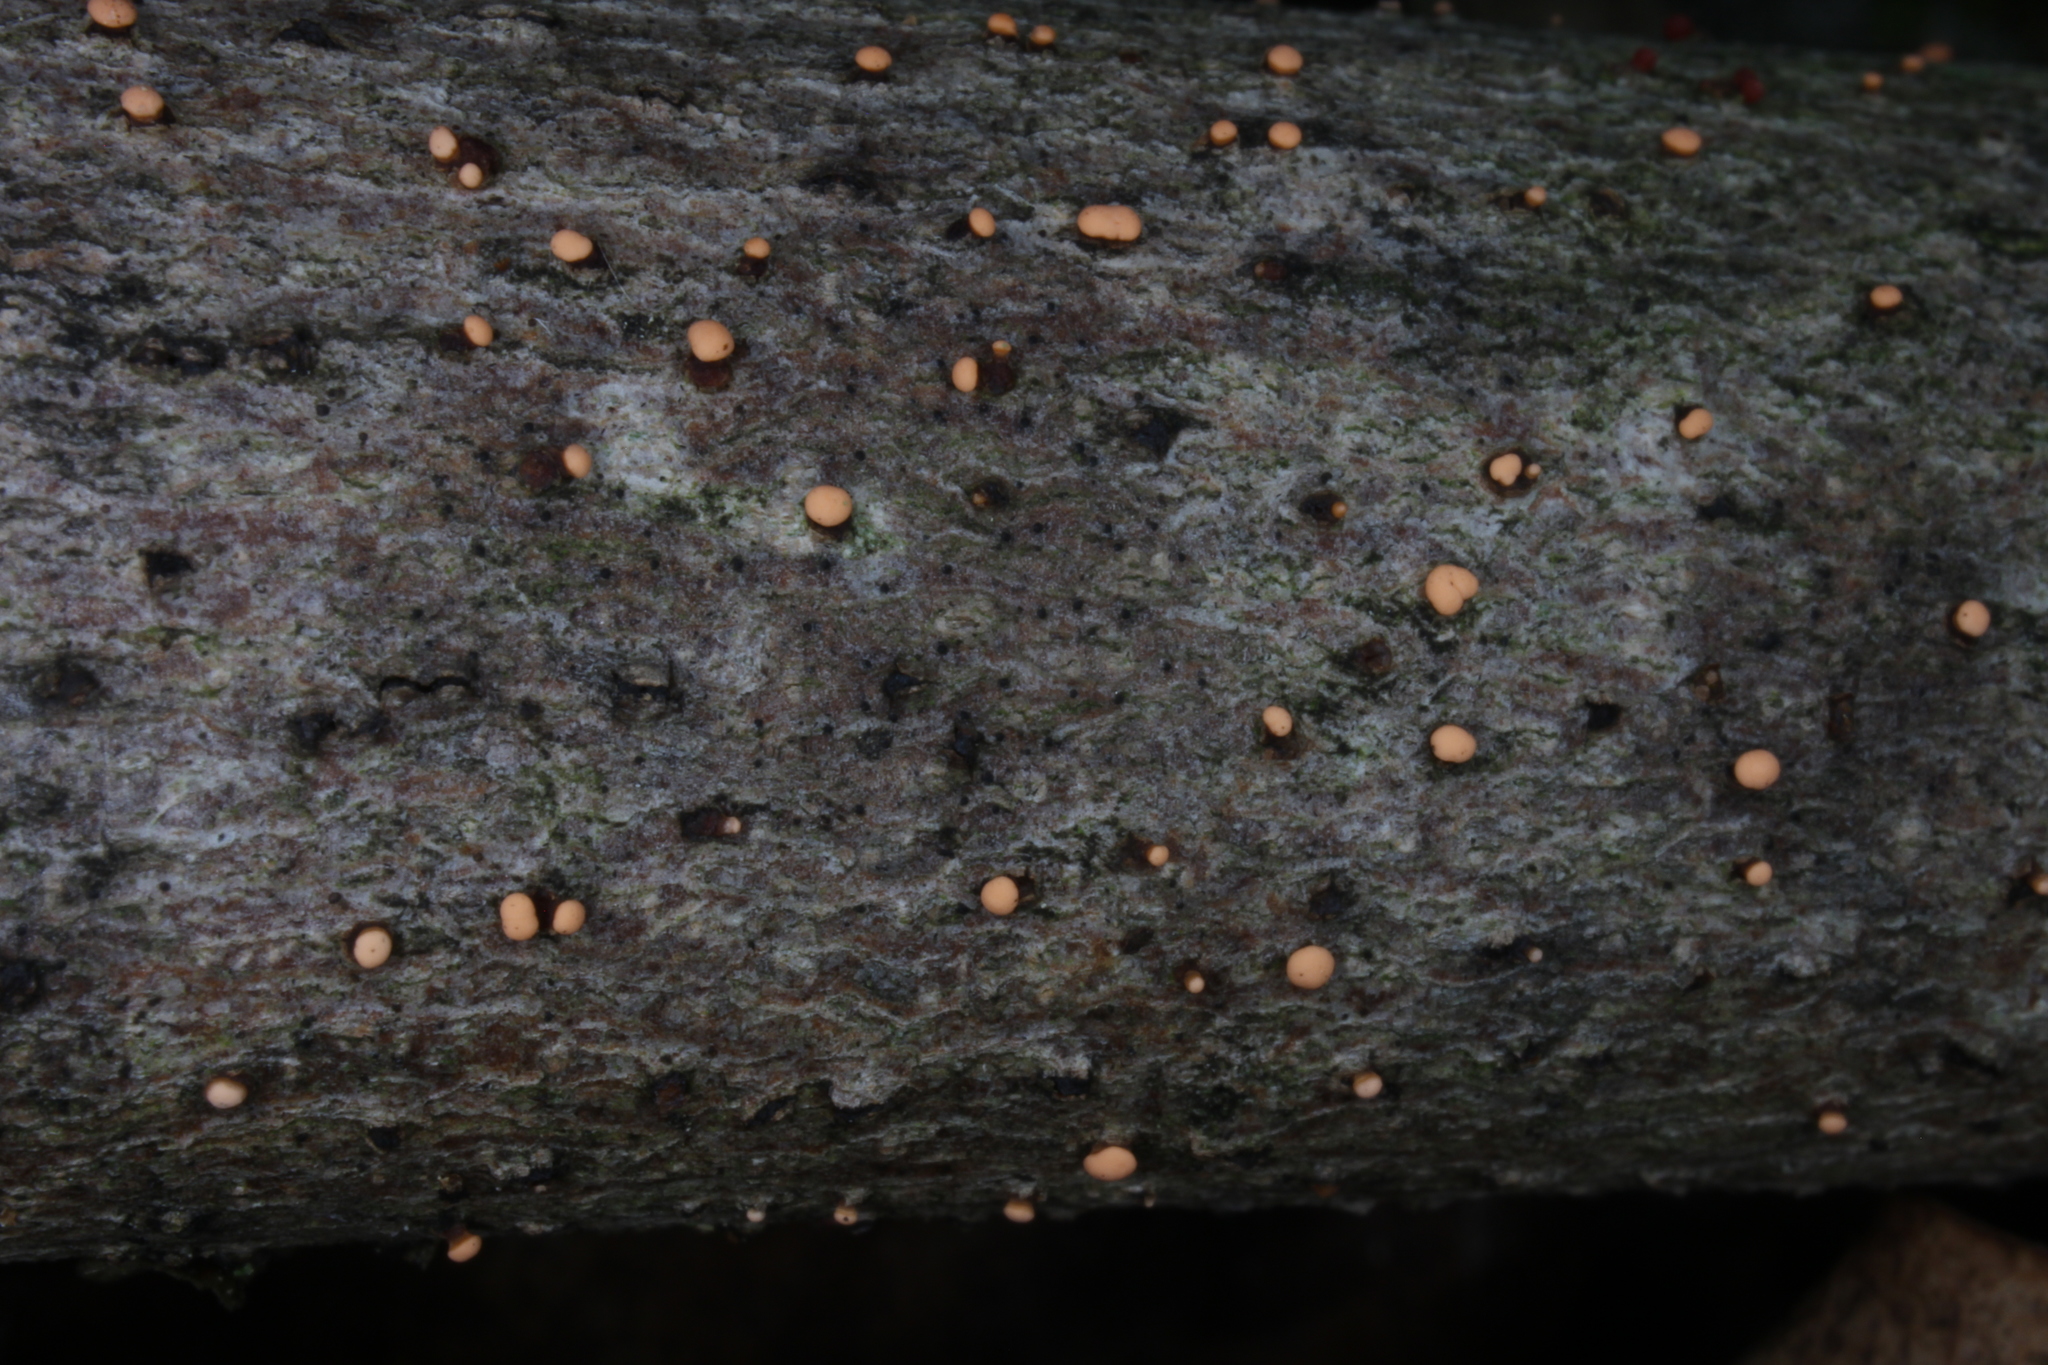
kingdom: Fungi
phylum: Ascomycota
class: Sordariomycetes
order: Hypocreales
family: Nectriaceae
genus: Nectria
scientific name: Nectria cinnabarina
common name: Coral spot
